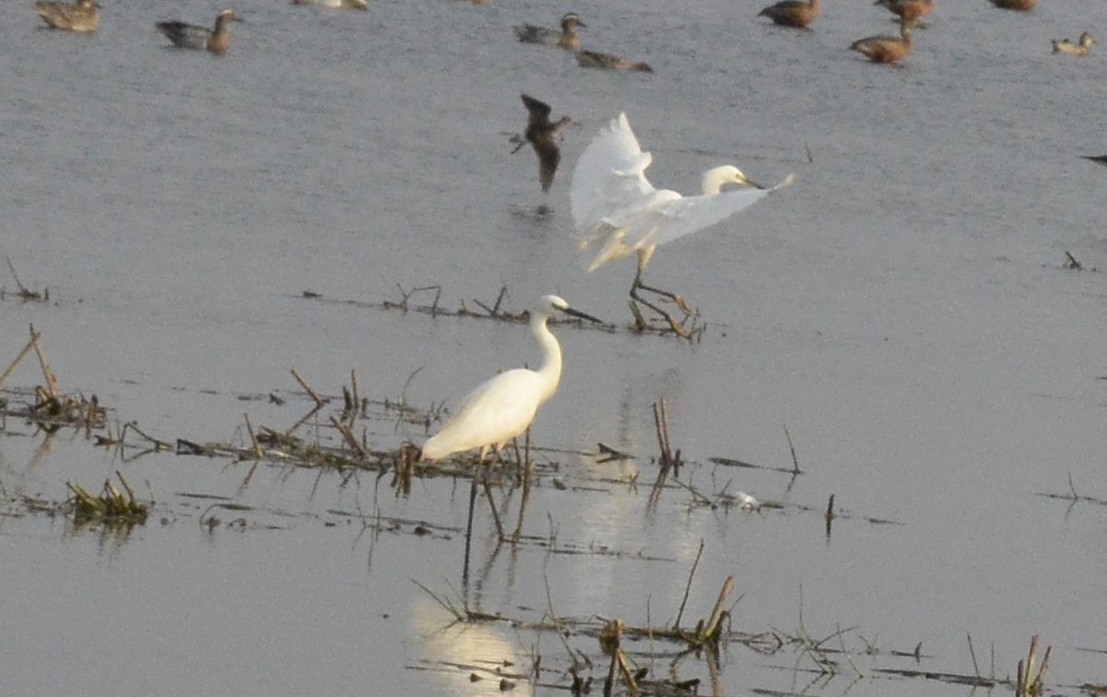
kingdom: Animalia
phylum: Chordata
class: Aves
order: Pelecaniformes
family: Ardeidae
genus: Egretta
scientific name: Egretta garzetta
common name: Little egret
